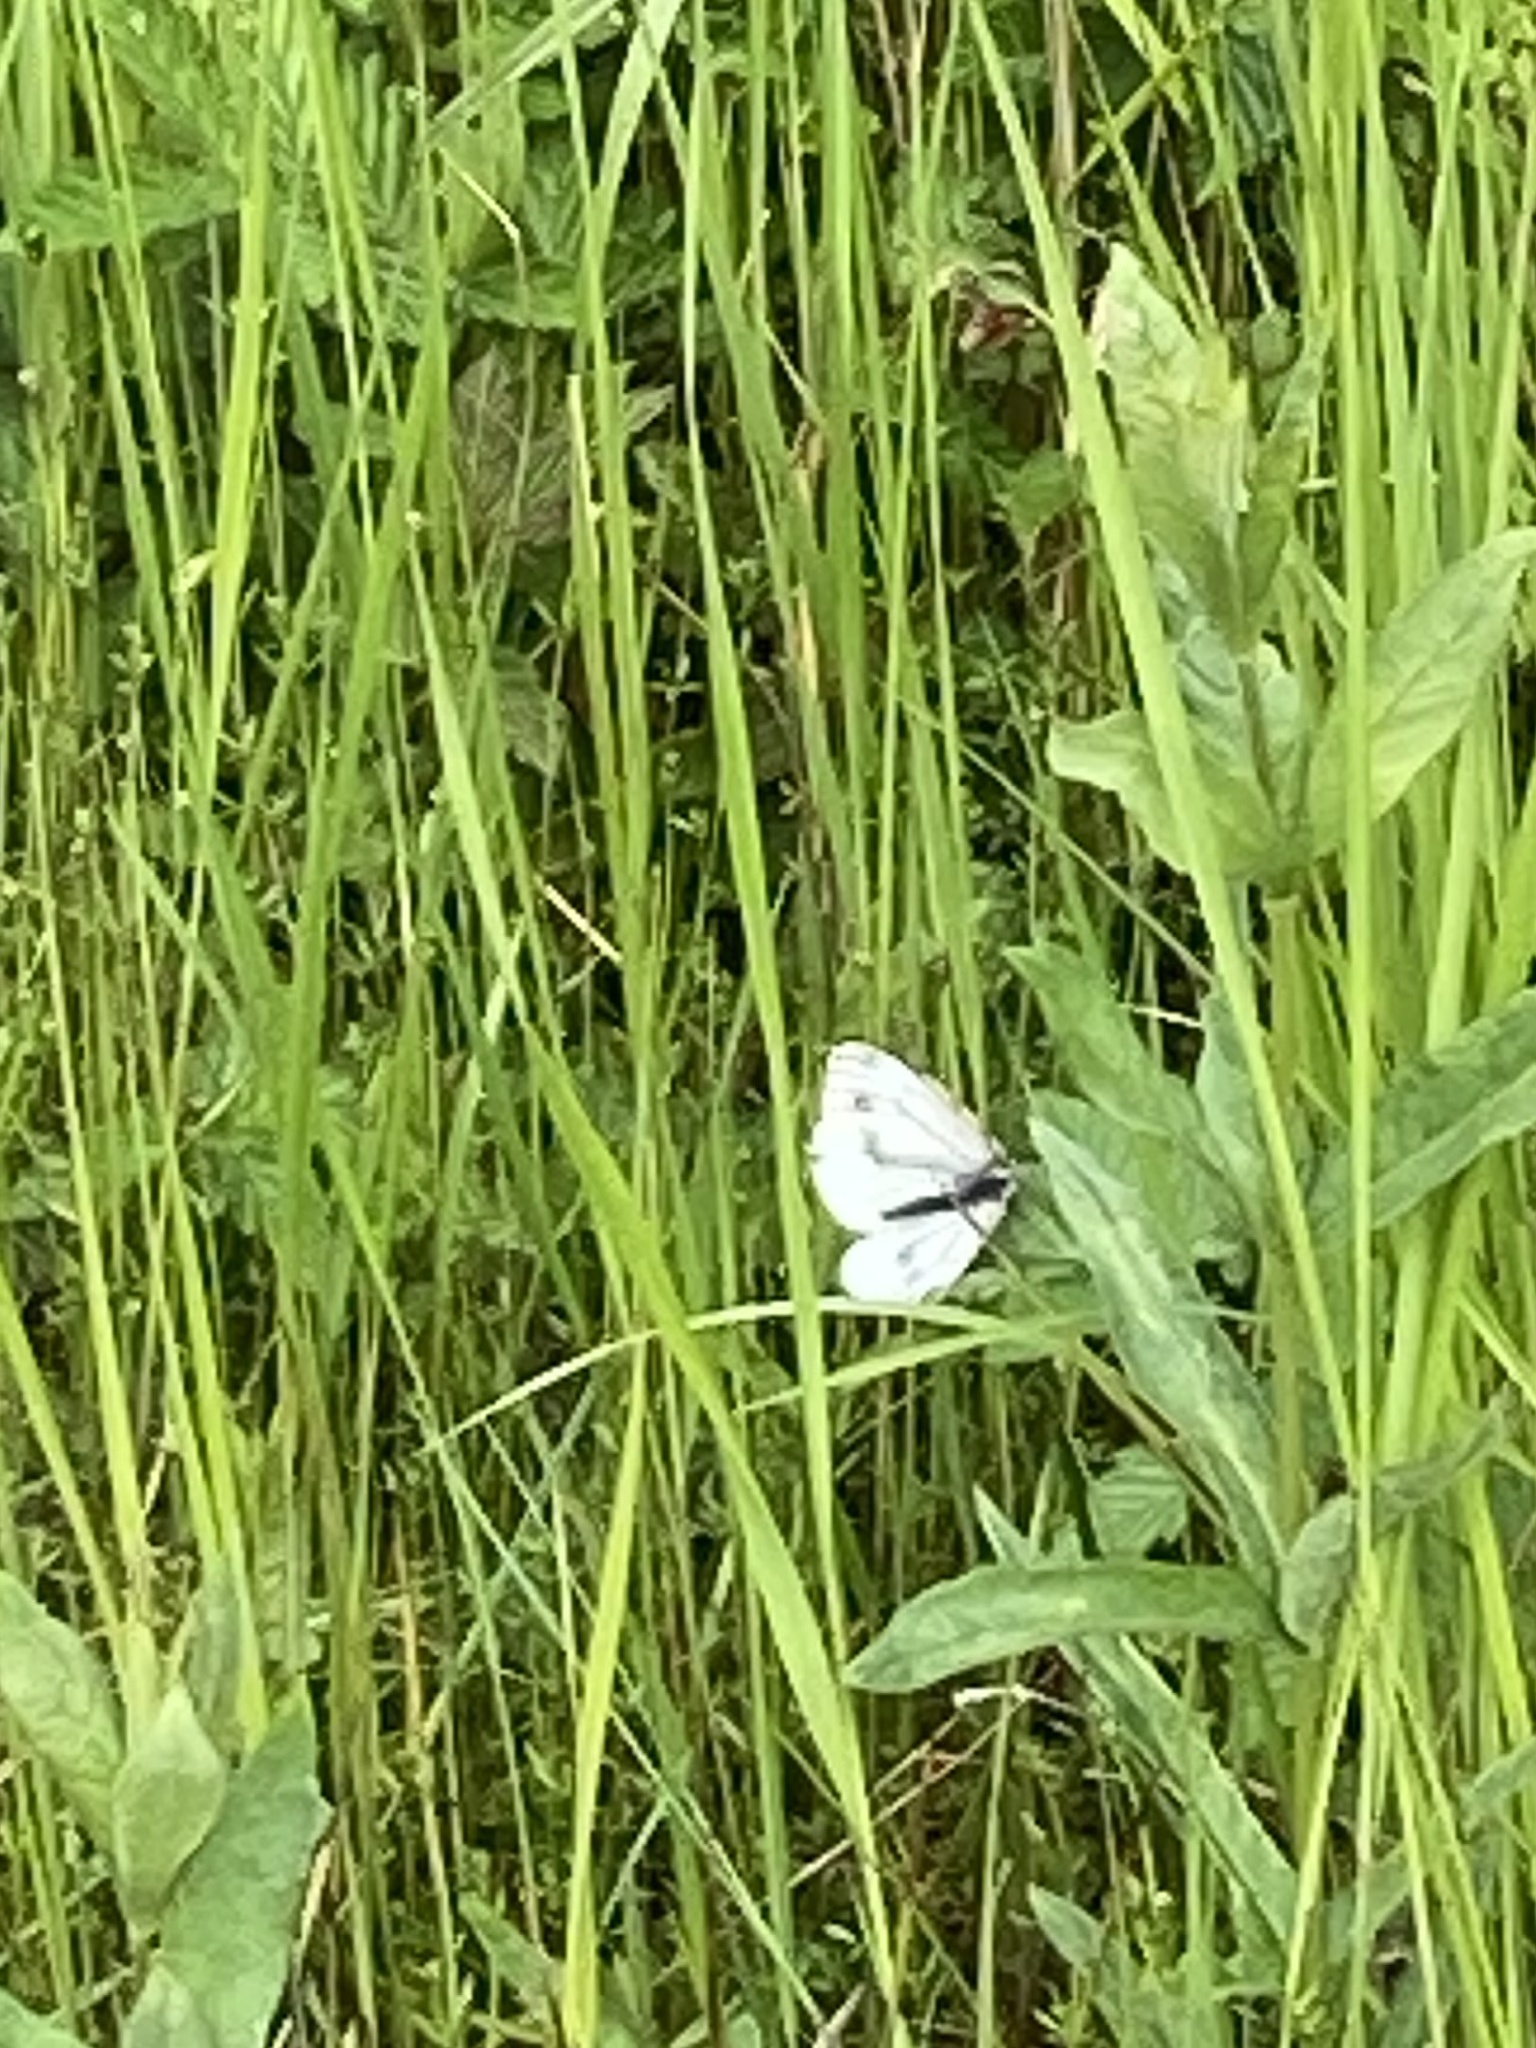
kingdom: Animalia
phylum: Arthropoda
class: Insecta
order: Lepidoptera
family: Pieridae
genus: Pieris
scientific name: Pieris napi
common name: Green-veined white
